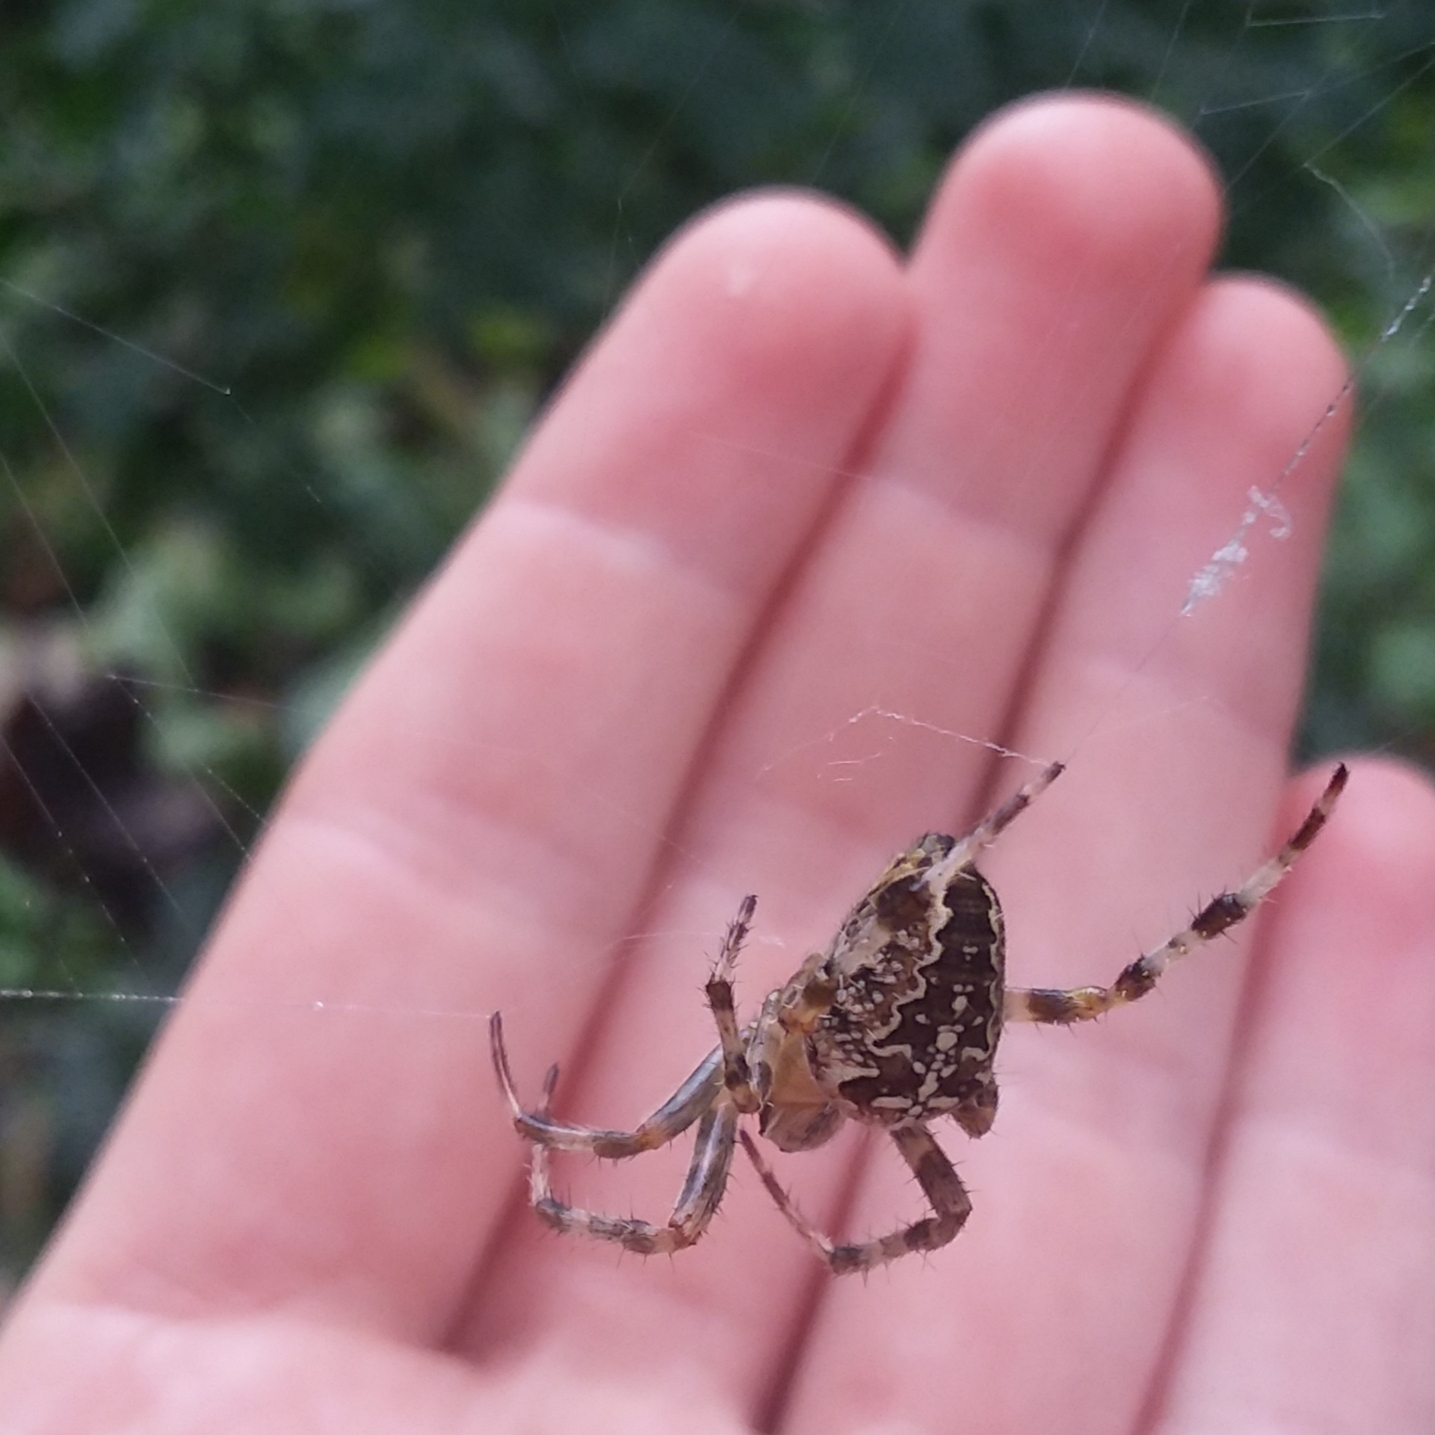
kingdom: Animalia
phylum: Arthropoda
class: Arachnida
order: Araneae
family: Araneidae
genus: Araneus
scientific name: Araneus diadematus
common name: Cross orbweaver
